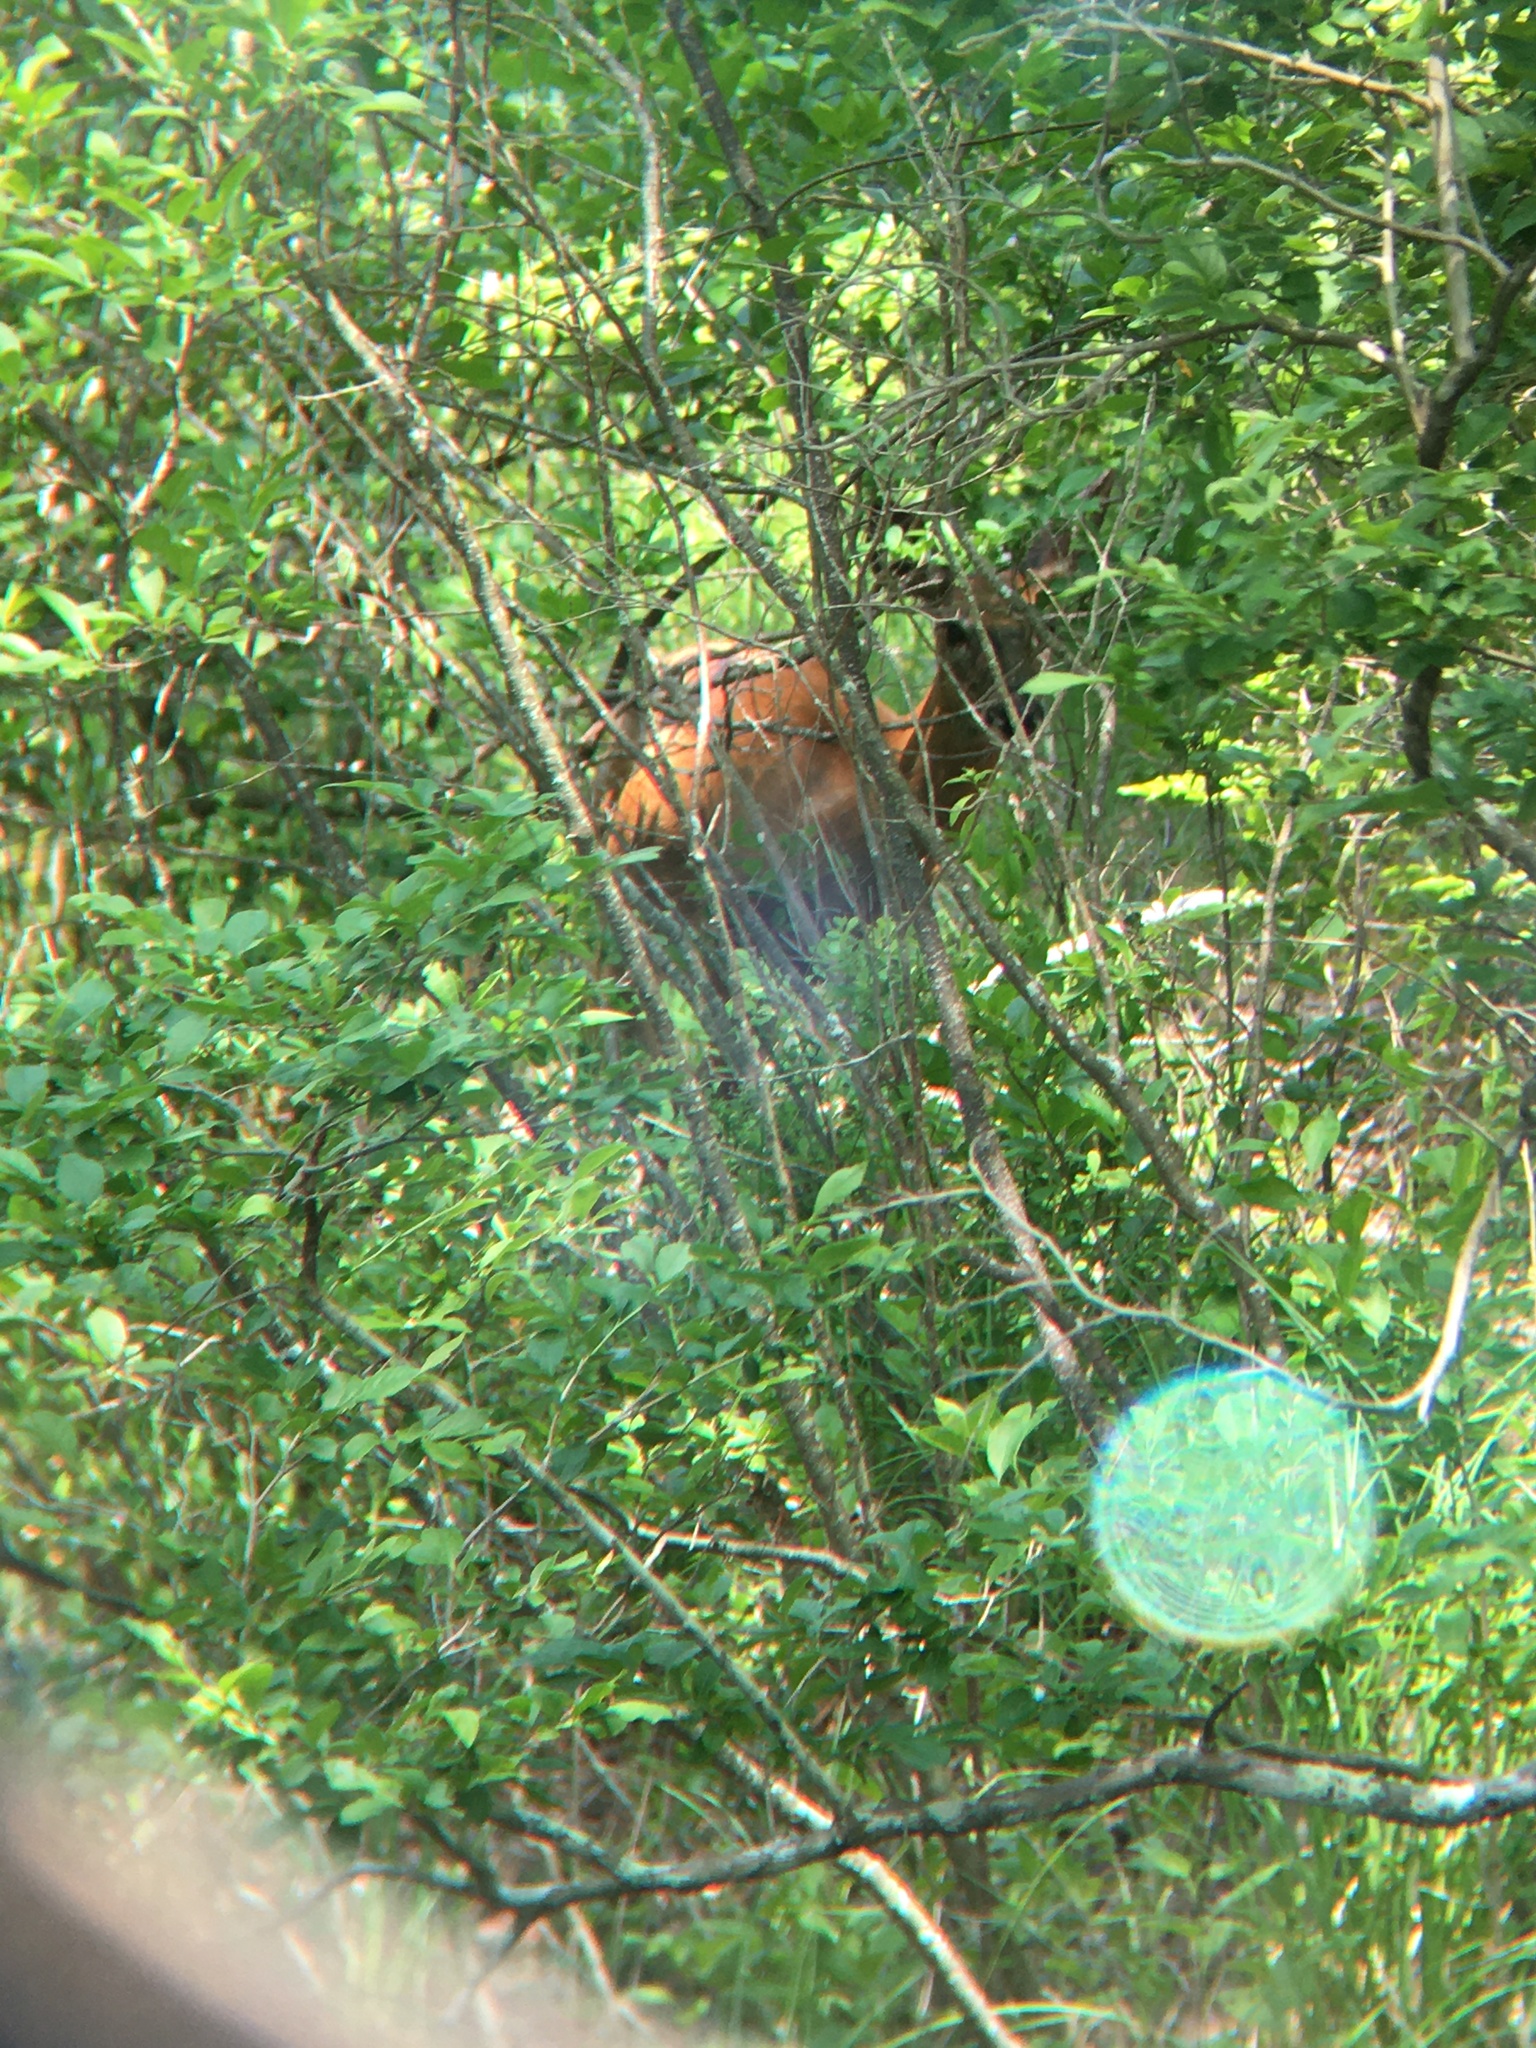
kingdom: Animalia
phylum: Chordata
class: Mammalia
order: Artiodactyla
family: Cervidae
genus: Odocoileus
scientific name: Odocoileus virginianus
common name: White-tailed deer
